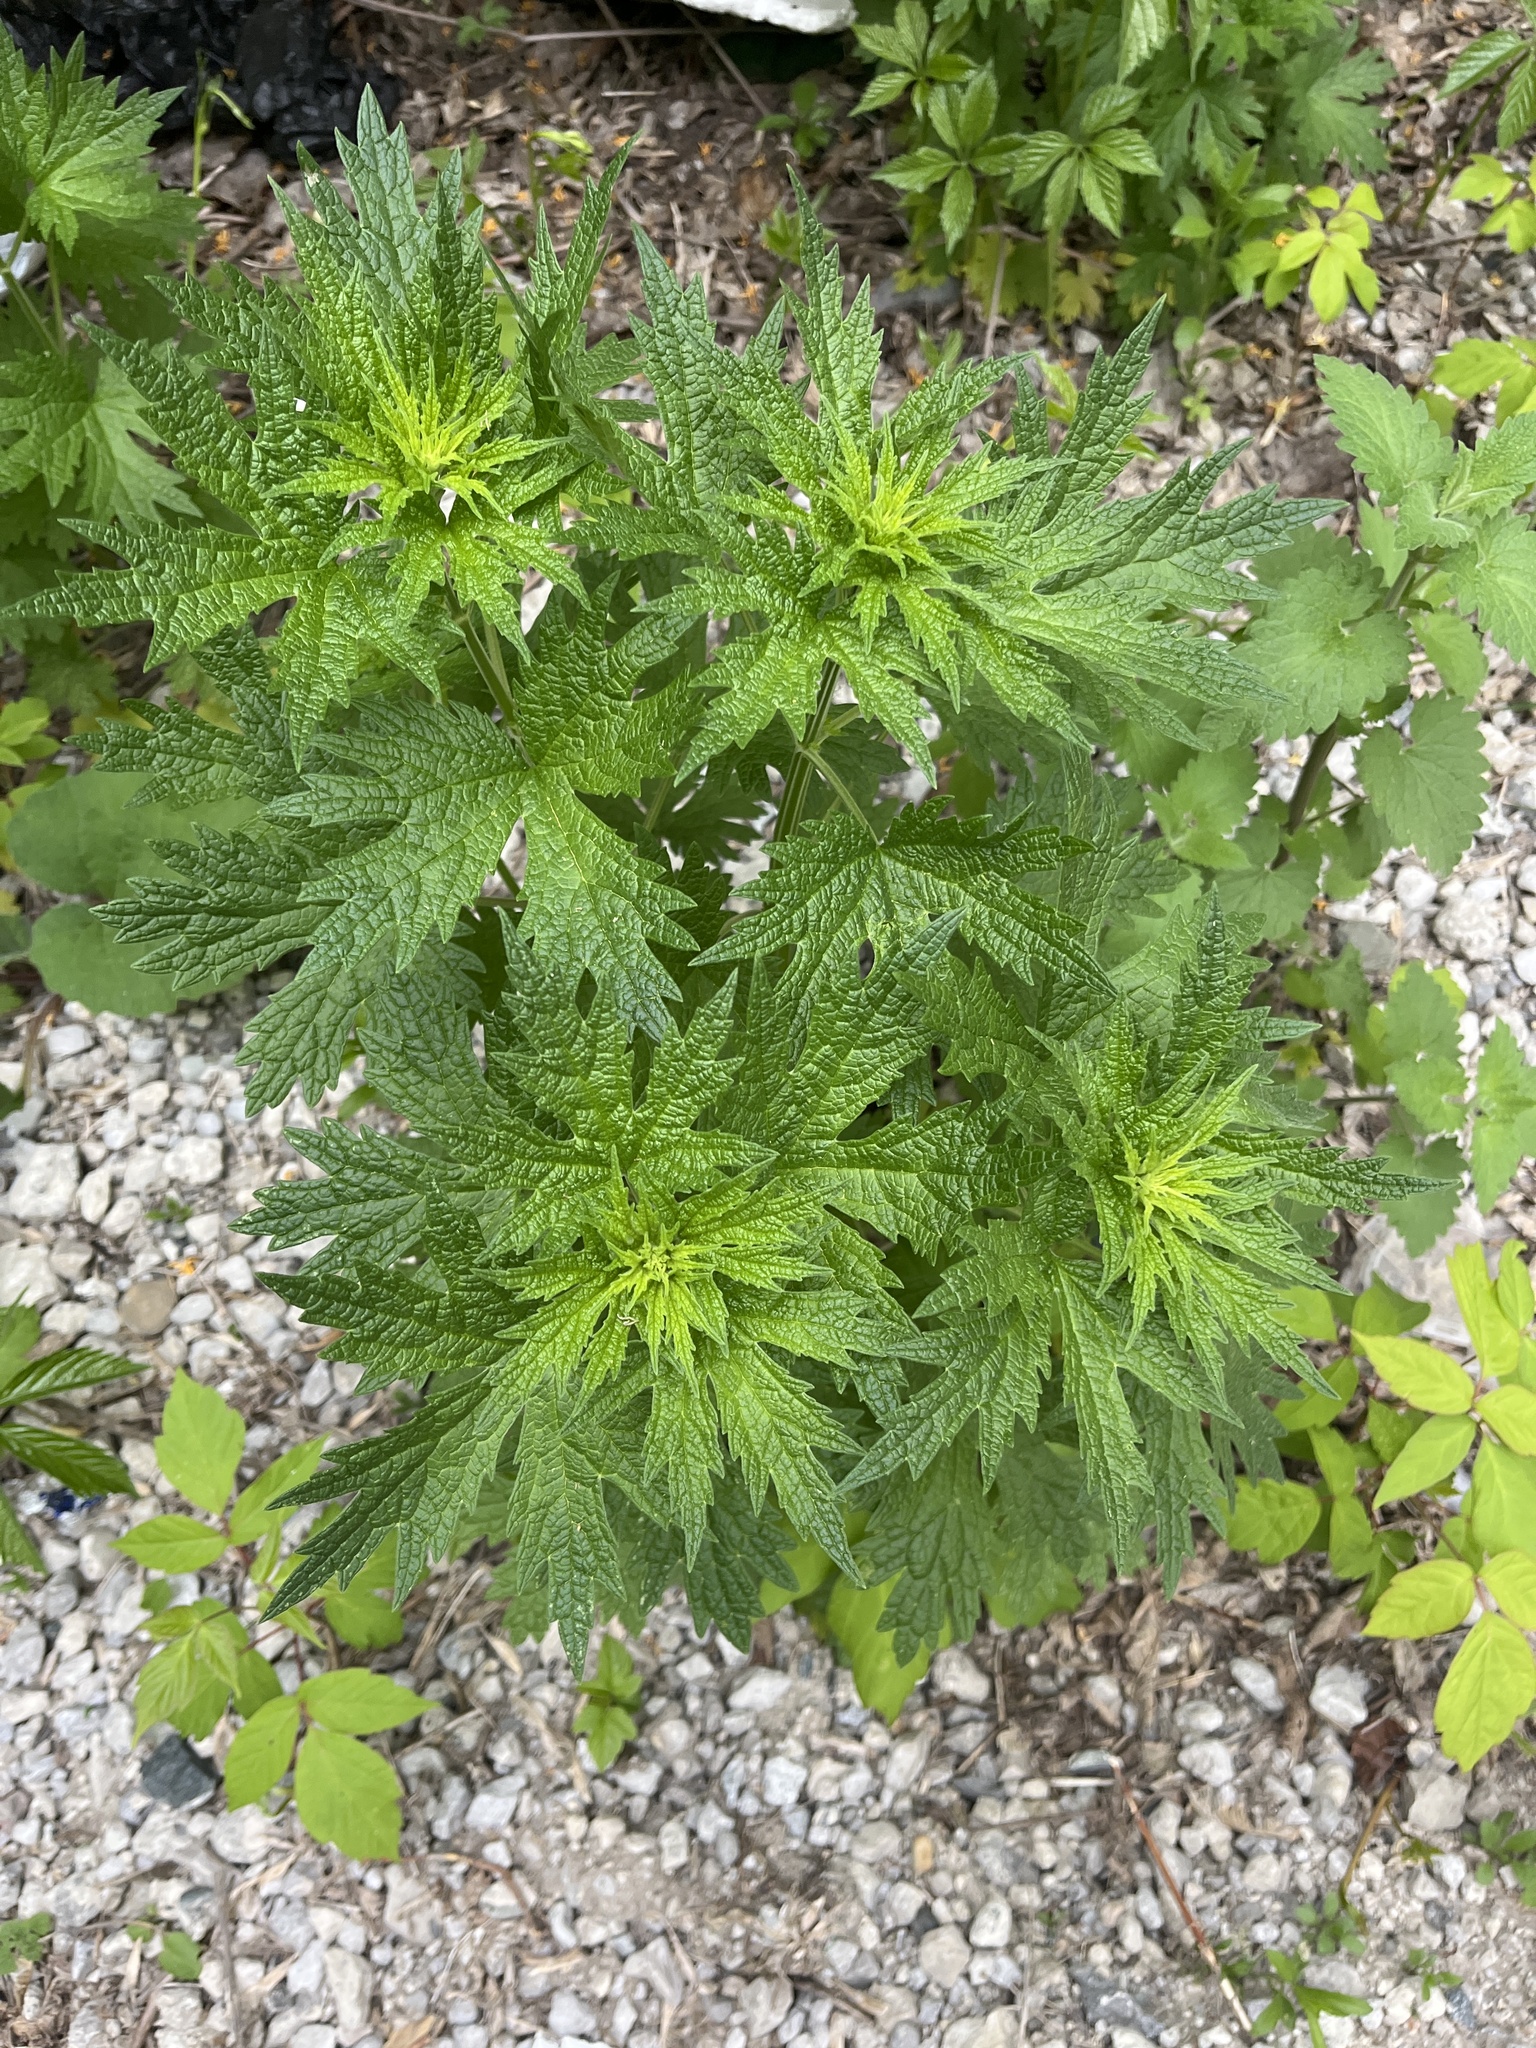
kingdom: Plantae
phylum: Tracheophyta
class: Magnoliopsida
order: Lamiales
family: Lamiaceae
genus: Leonurus
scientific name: Leonurus cardiaca
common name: Motherwort
